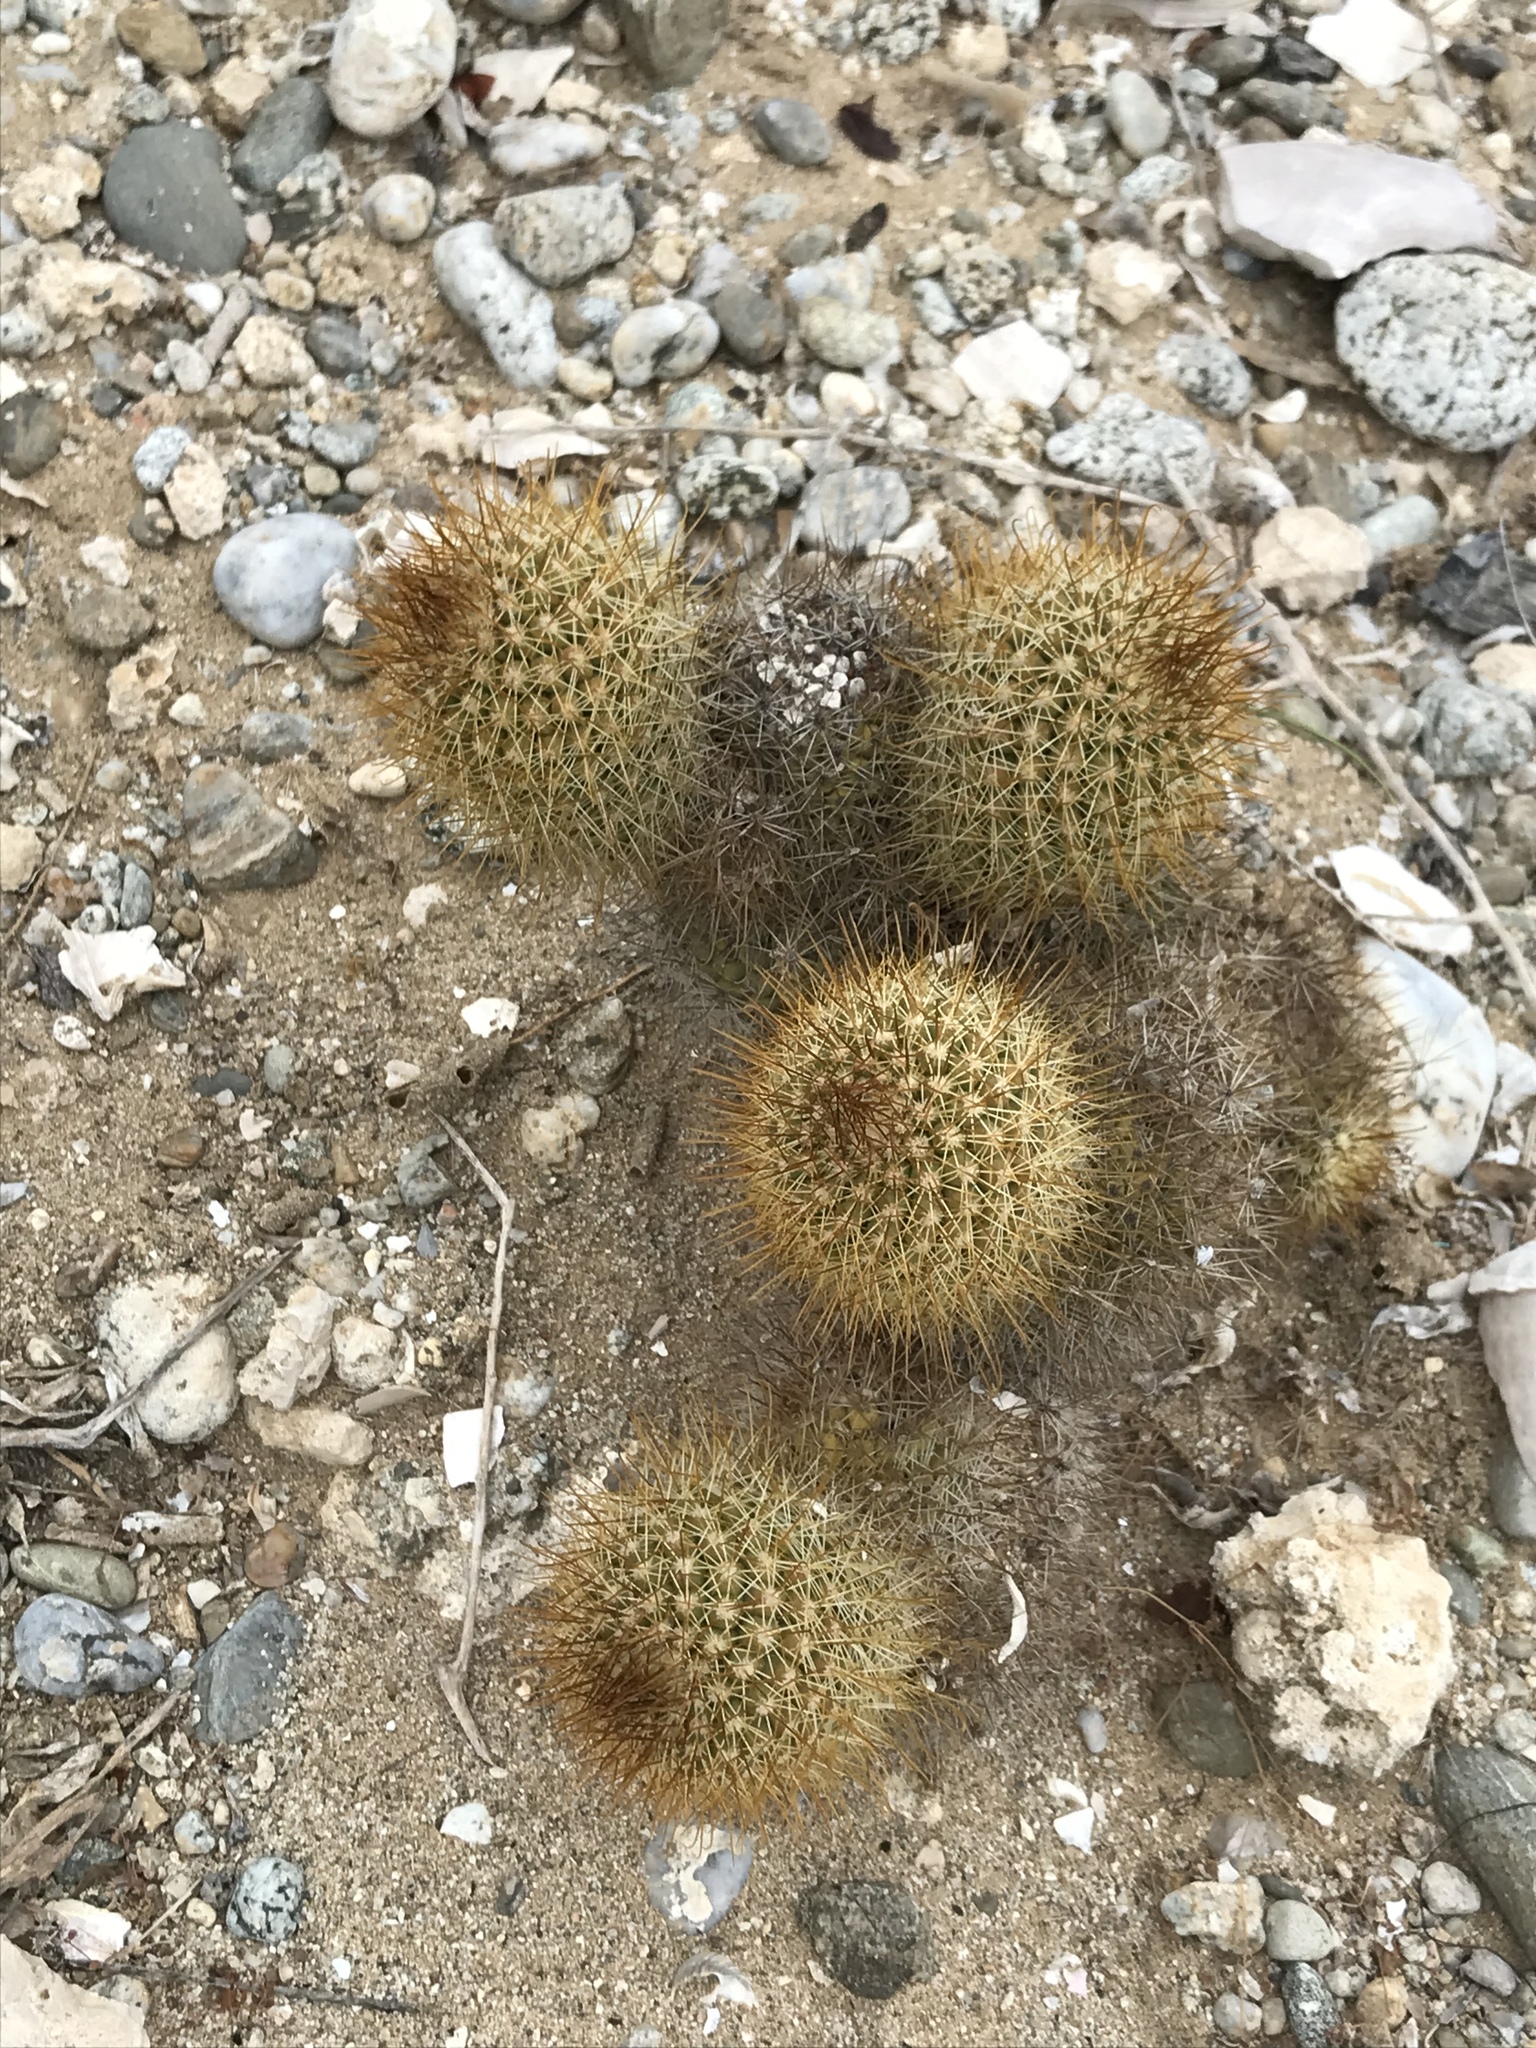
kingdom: Plantae
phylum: Tracheophyta
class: Magnoliopsida
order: Caryophyllales
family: Cactaceae
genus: Cochemiea
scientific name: Cochemiea cerralboa
